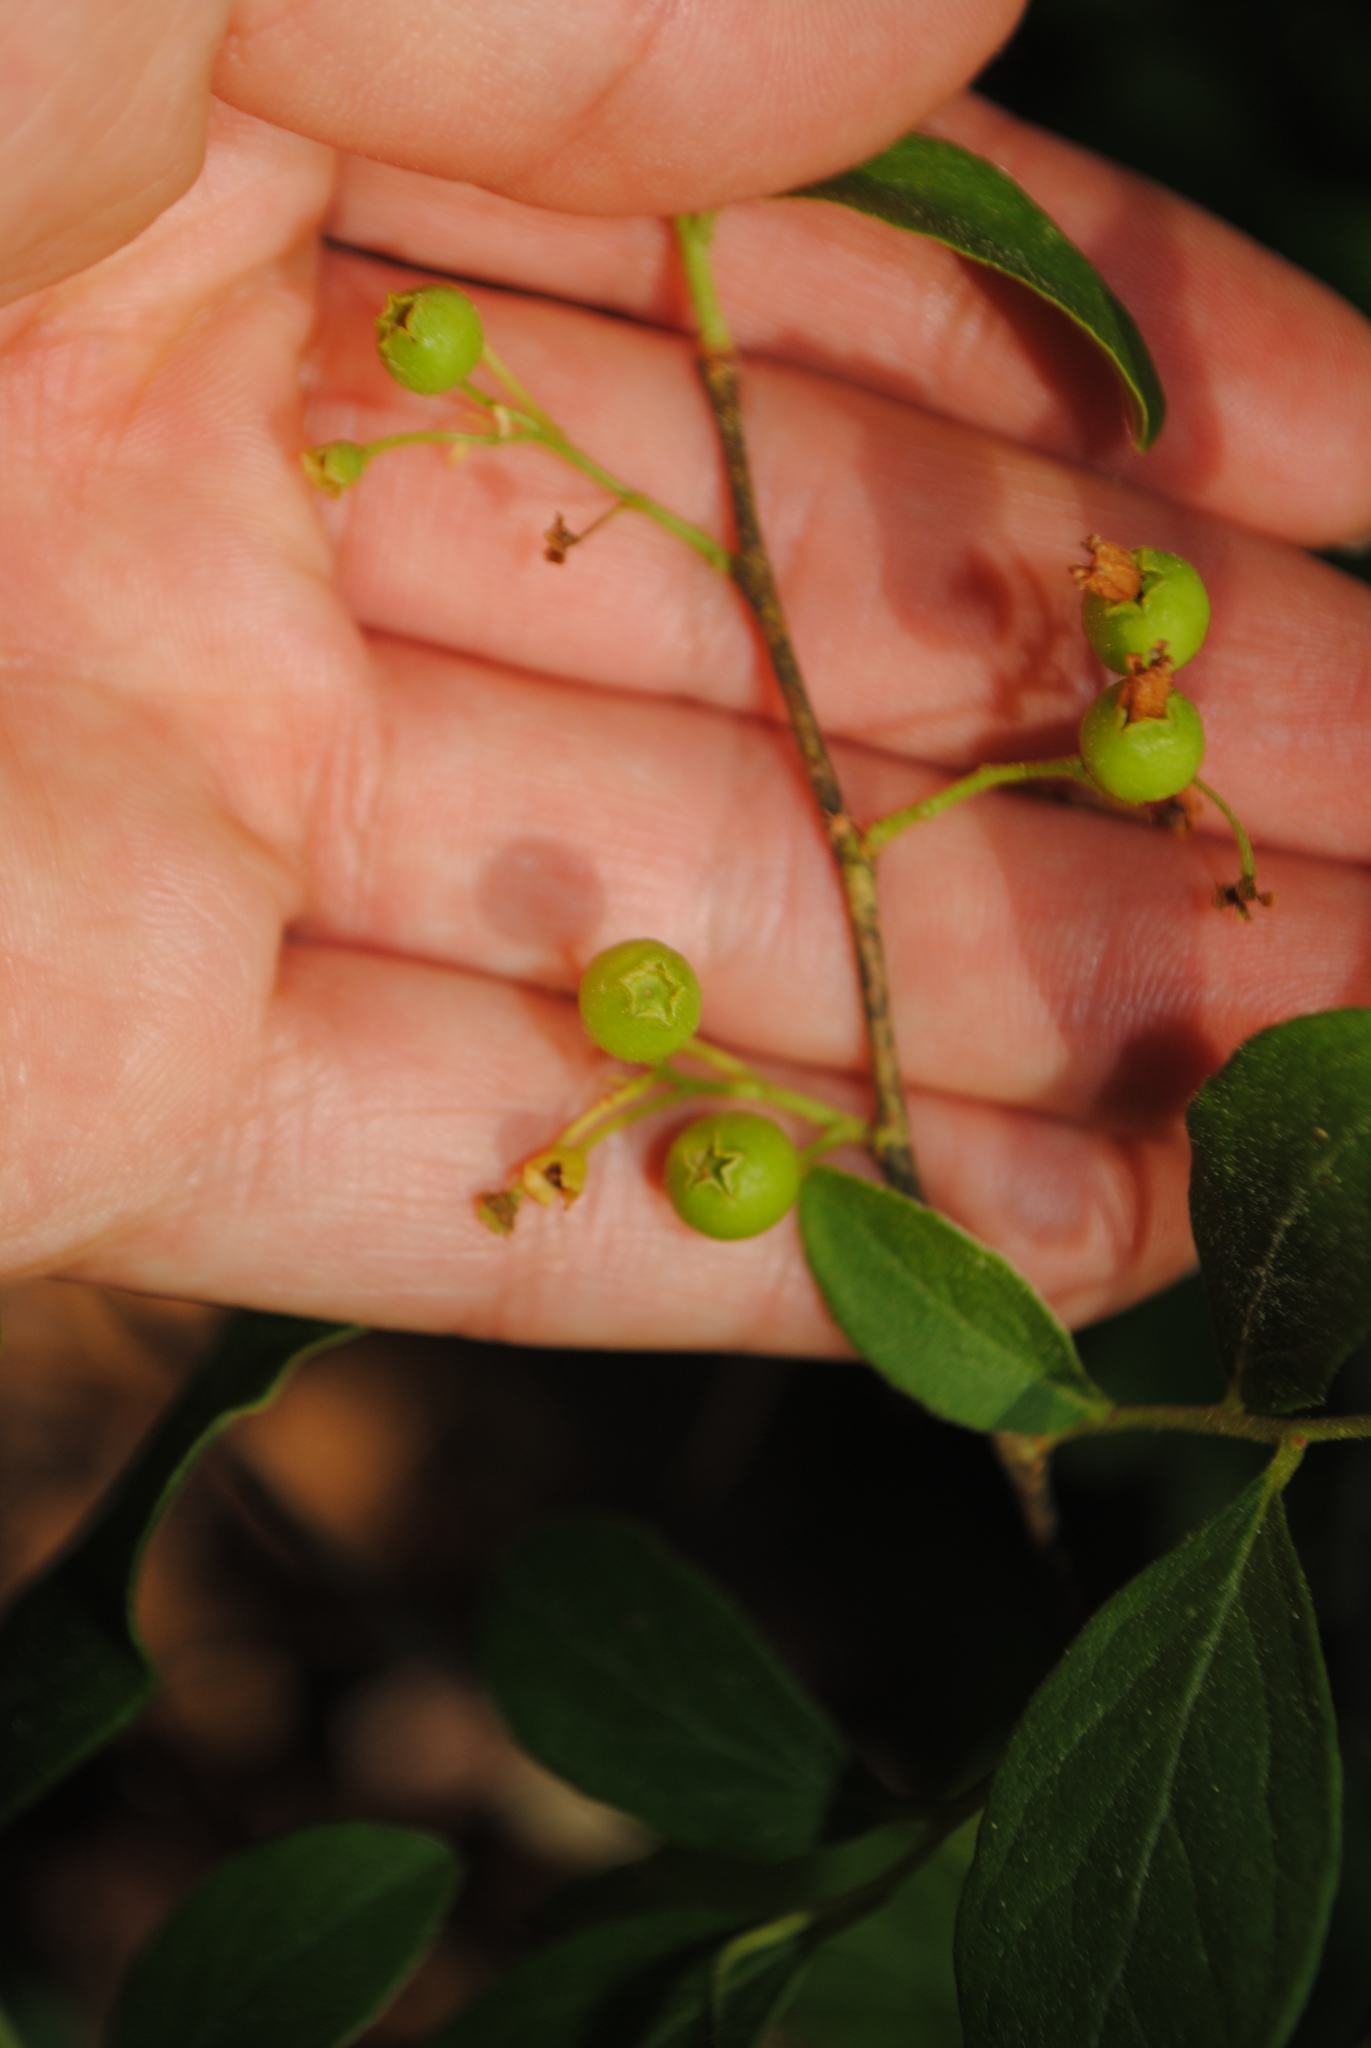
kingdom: Plantae
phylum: Tracheophyta
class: Magnoliopsida
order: Ericales
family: Ericaceae
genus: Gaylussacia
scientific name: Gaylussacia baccata
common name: Black huckleberry
